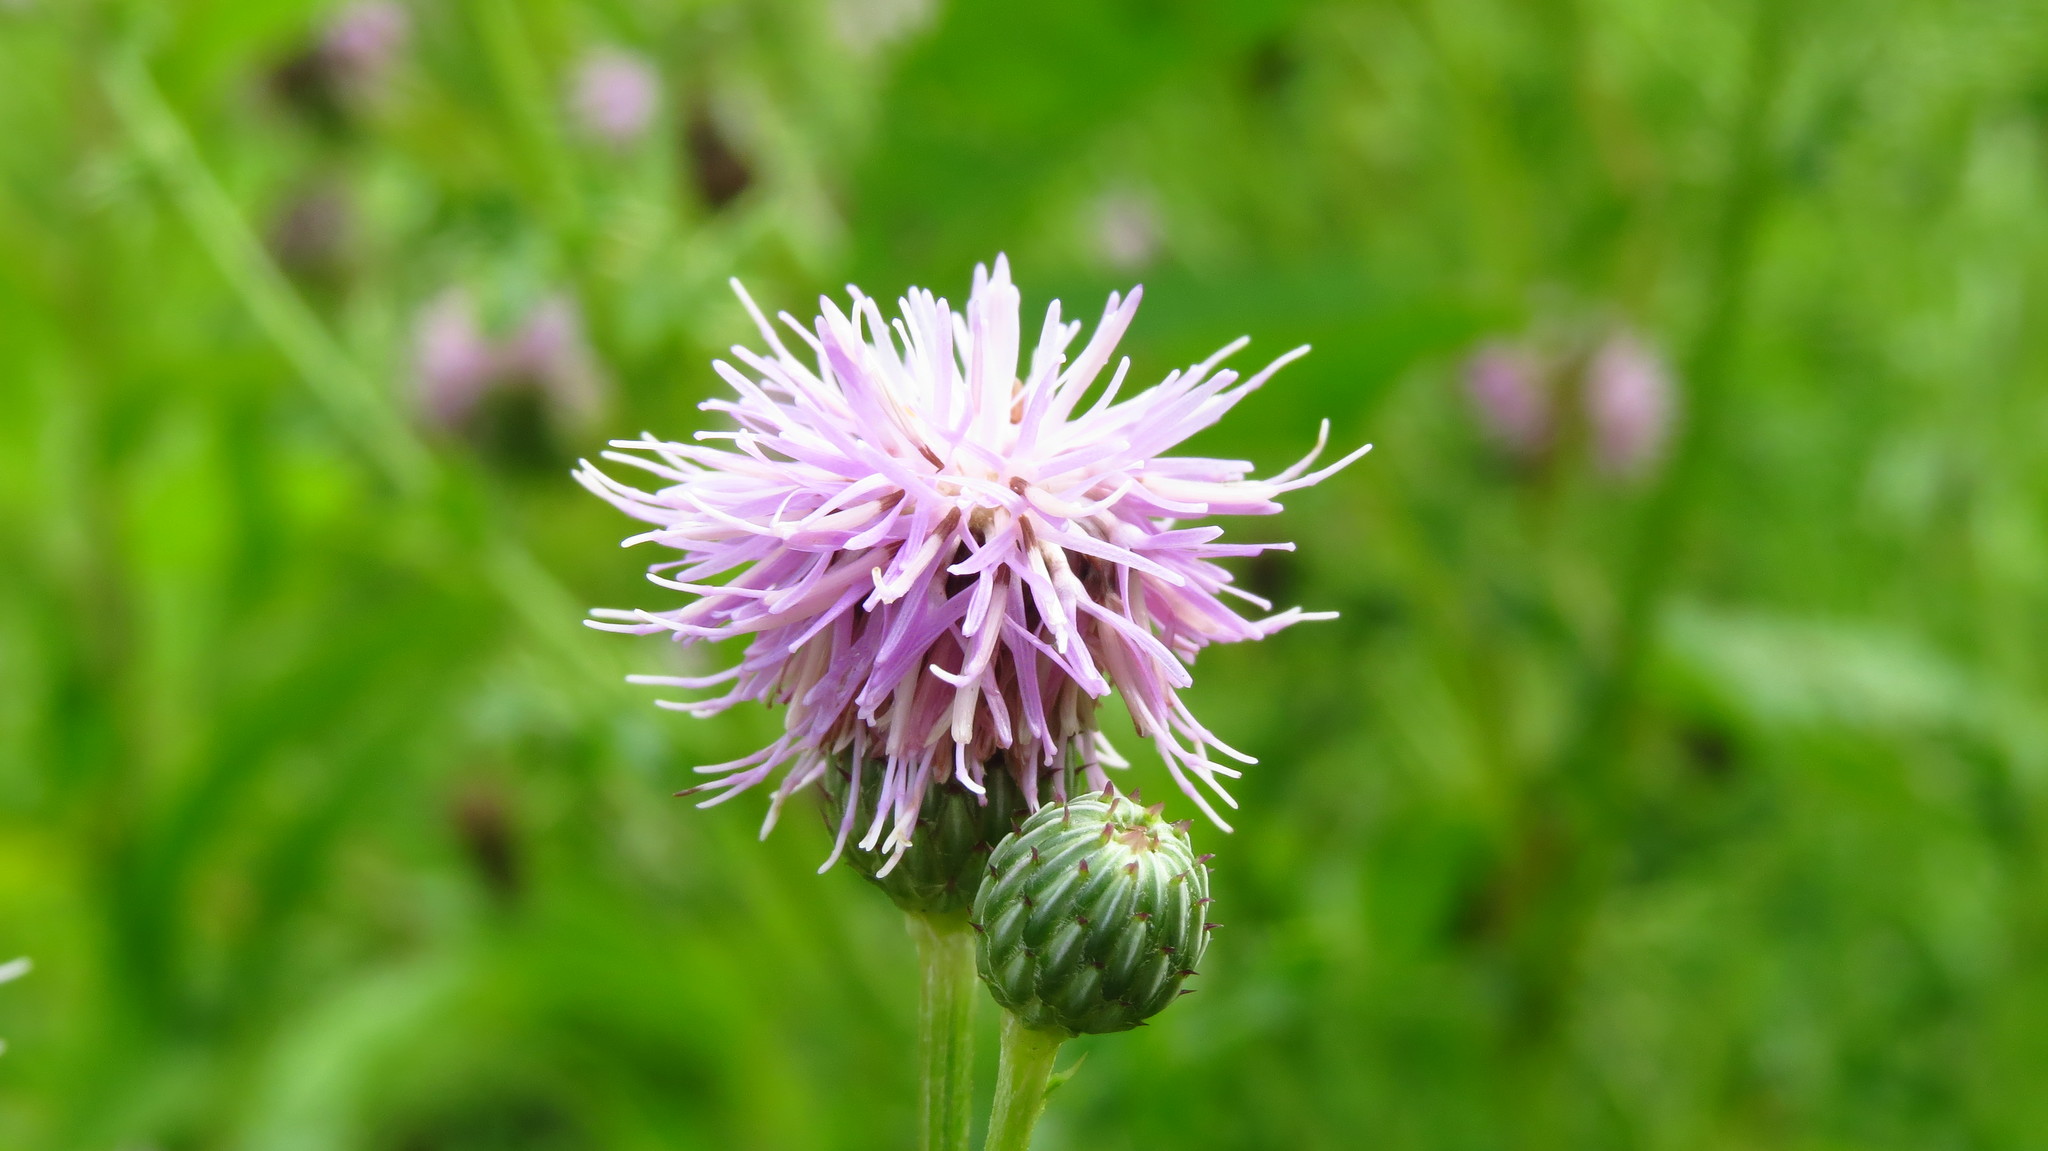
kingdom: Plantae
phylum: Tracheophyta
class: Magnoliopsida
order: Asterales
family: Asteraceae
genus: Cirsium
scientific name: Cirsium arvense
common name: Creeping thistle
